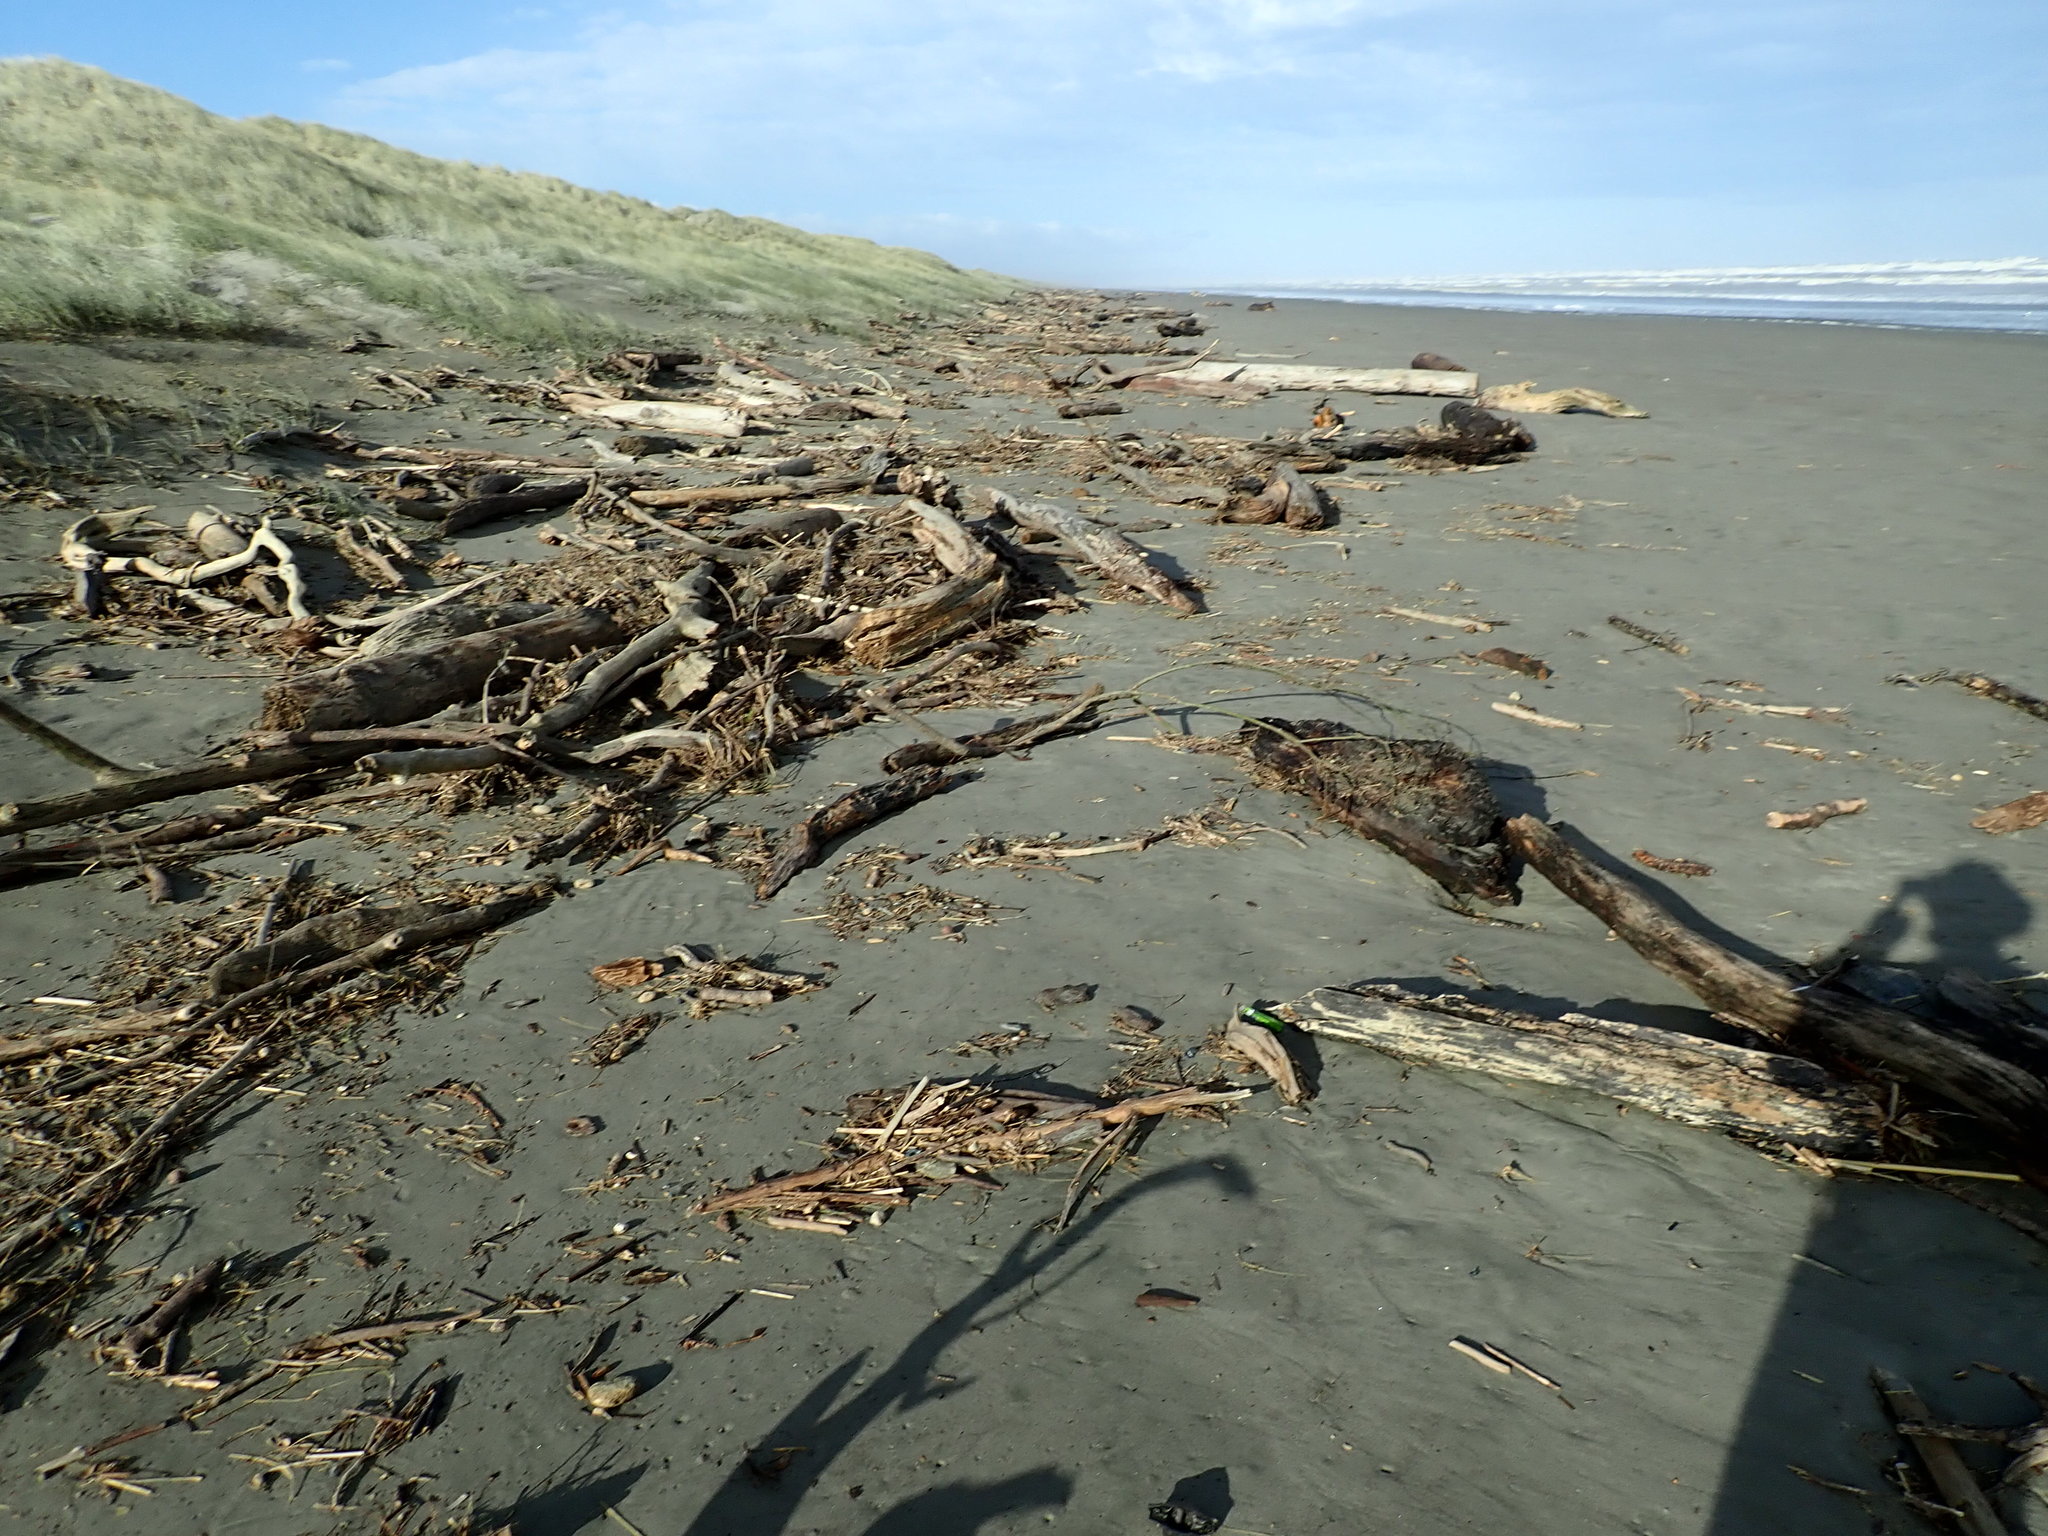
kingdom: Plantae
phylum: Tracheophyta
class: Liliopsida
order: Poales
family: Poaceae
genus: Phragmites
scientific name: Phragmites karka
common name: Tropical reed
